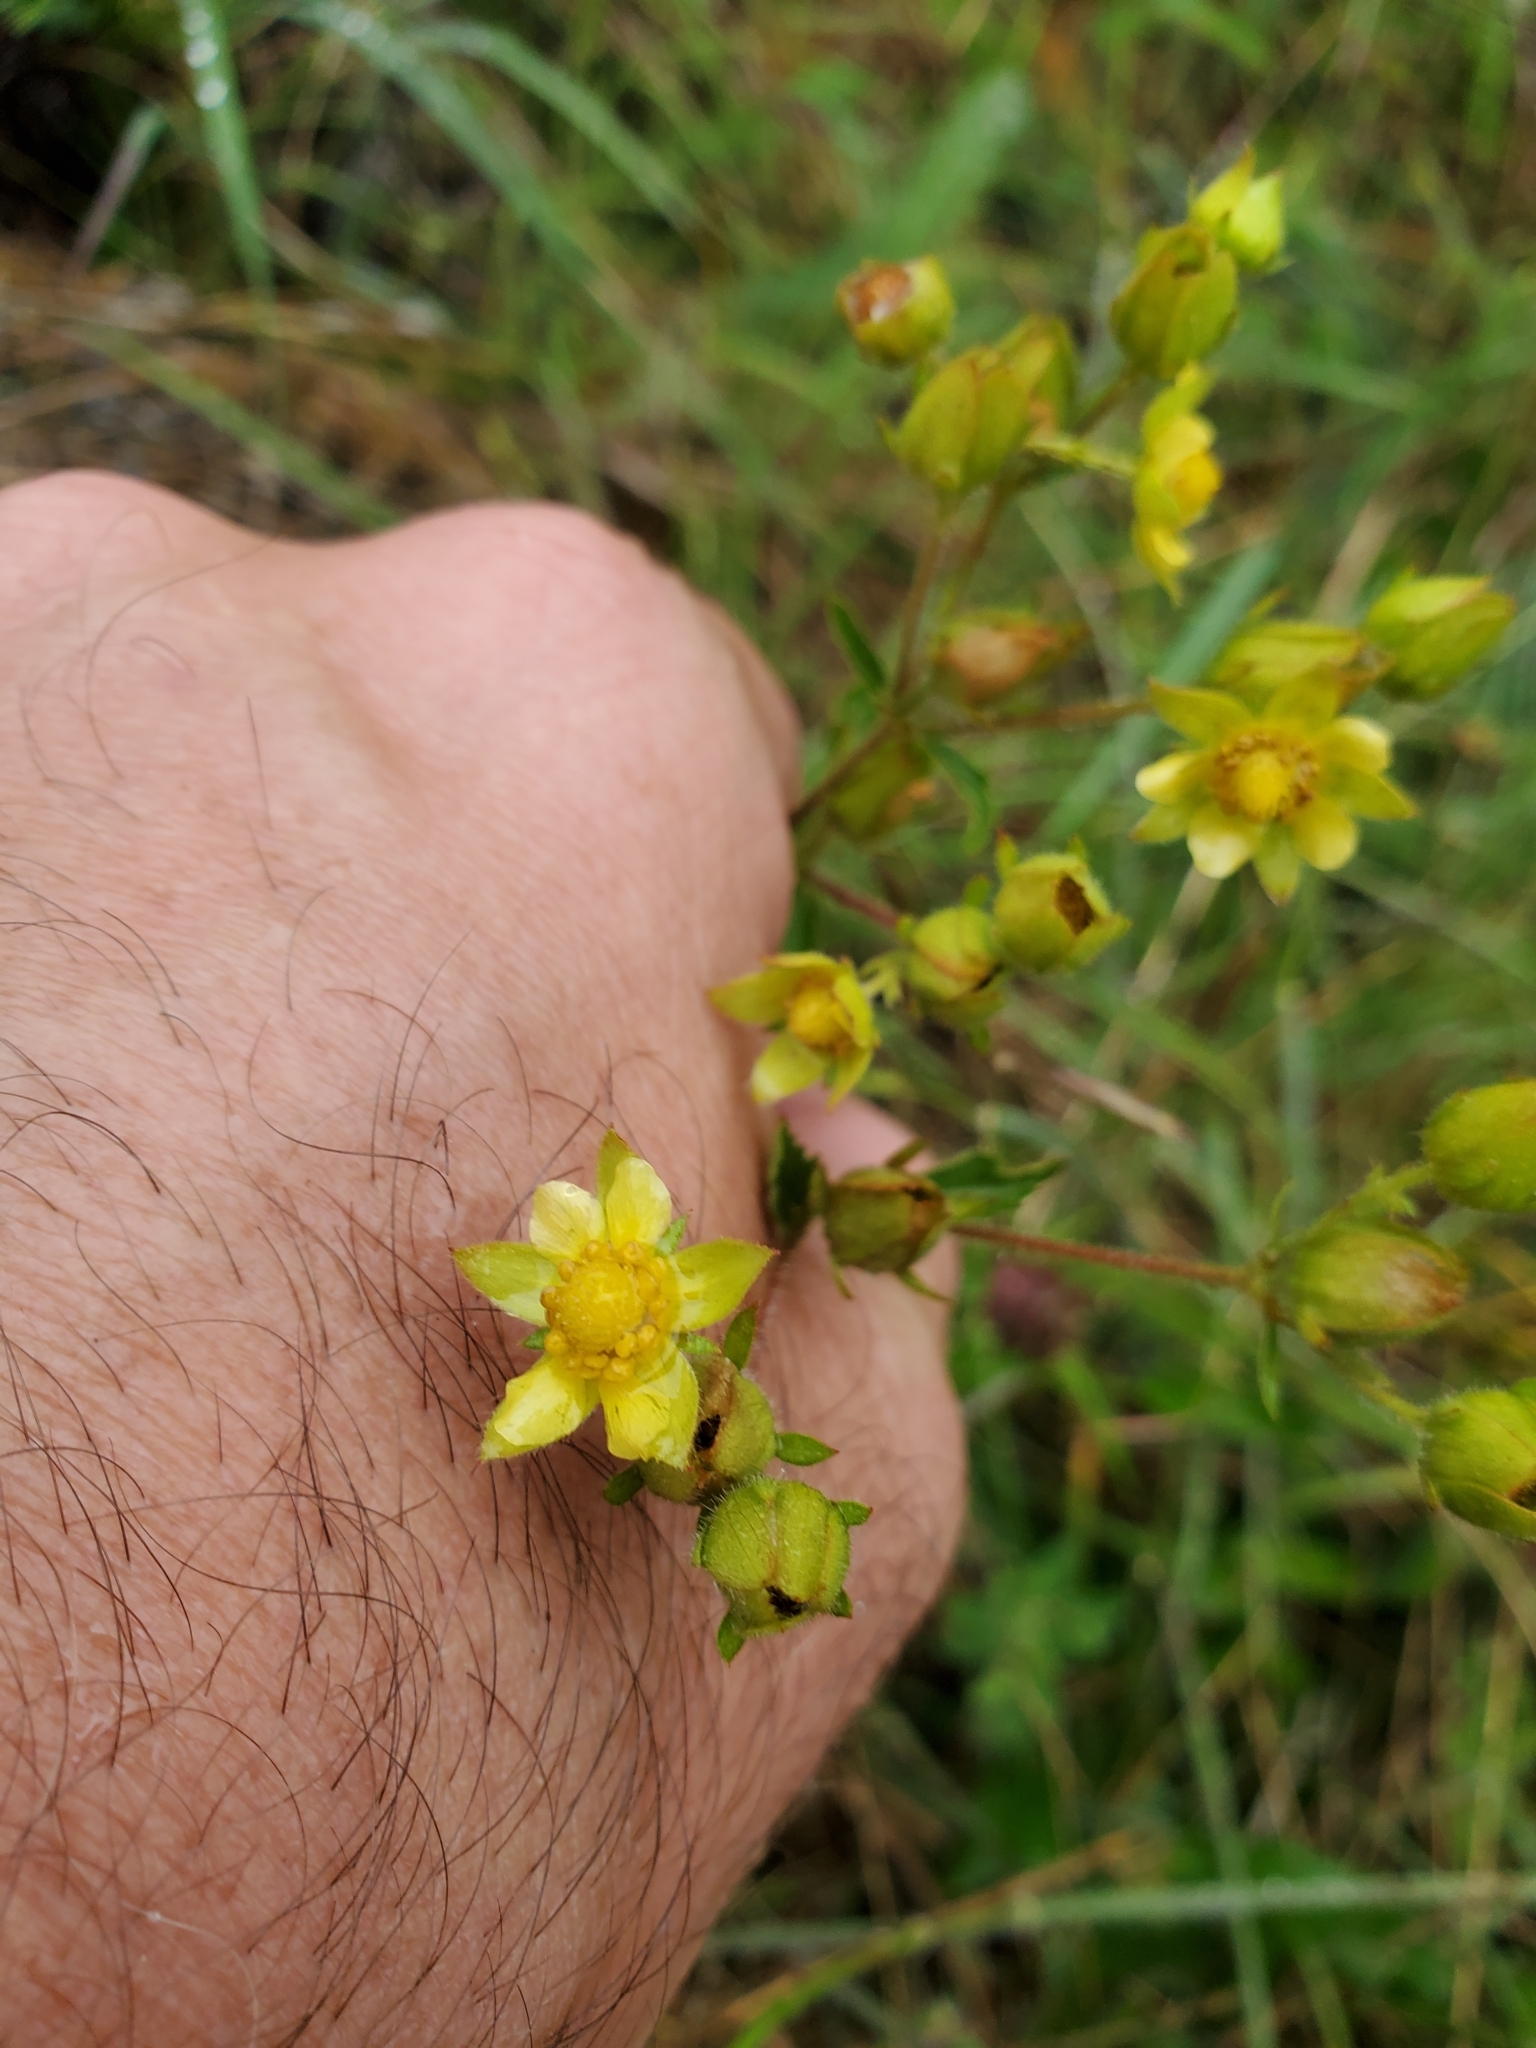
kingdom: Plantae
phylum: Tracheophyta
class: Magnoliopsida
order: Rosales
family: Rosaceae
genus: Potentilla
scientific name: Potentilla norvegica
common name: Ternate-leaved cinquefoil
